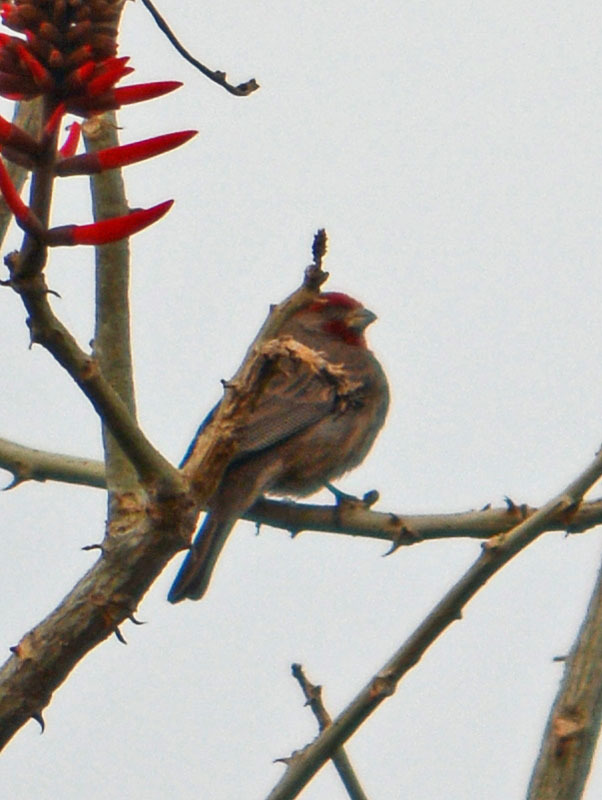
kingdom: Animalia
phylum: Chordata
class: Aves
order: Passeriformes
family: Fringillidae
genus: Haemorhous
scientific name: Haemorhous mexicanus
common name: House finch
